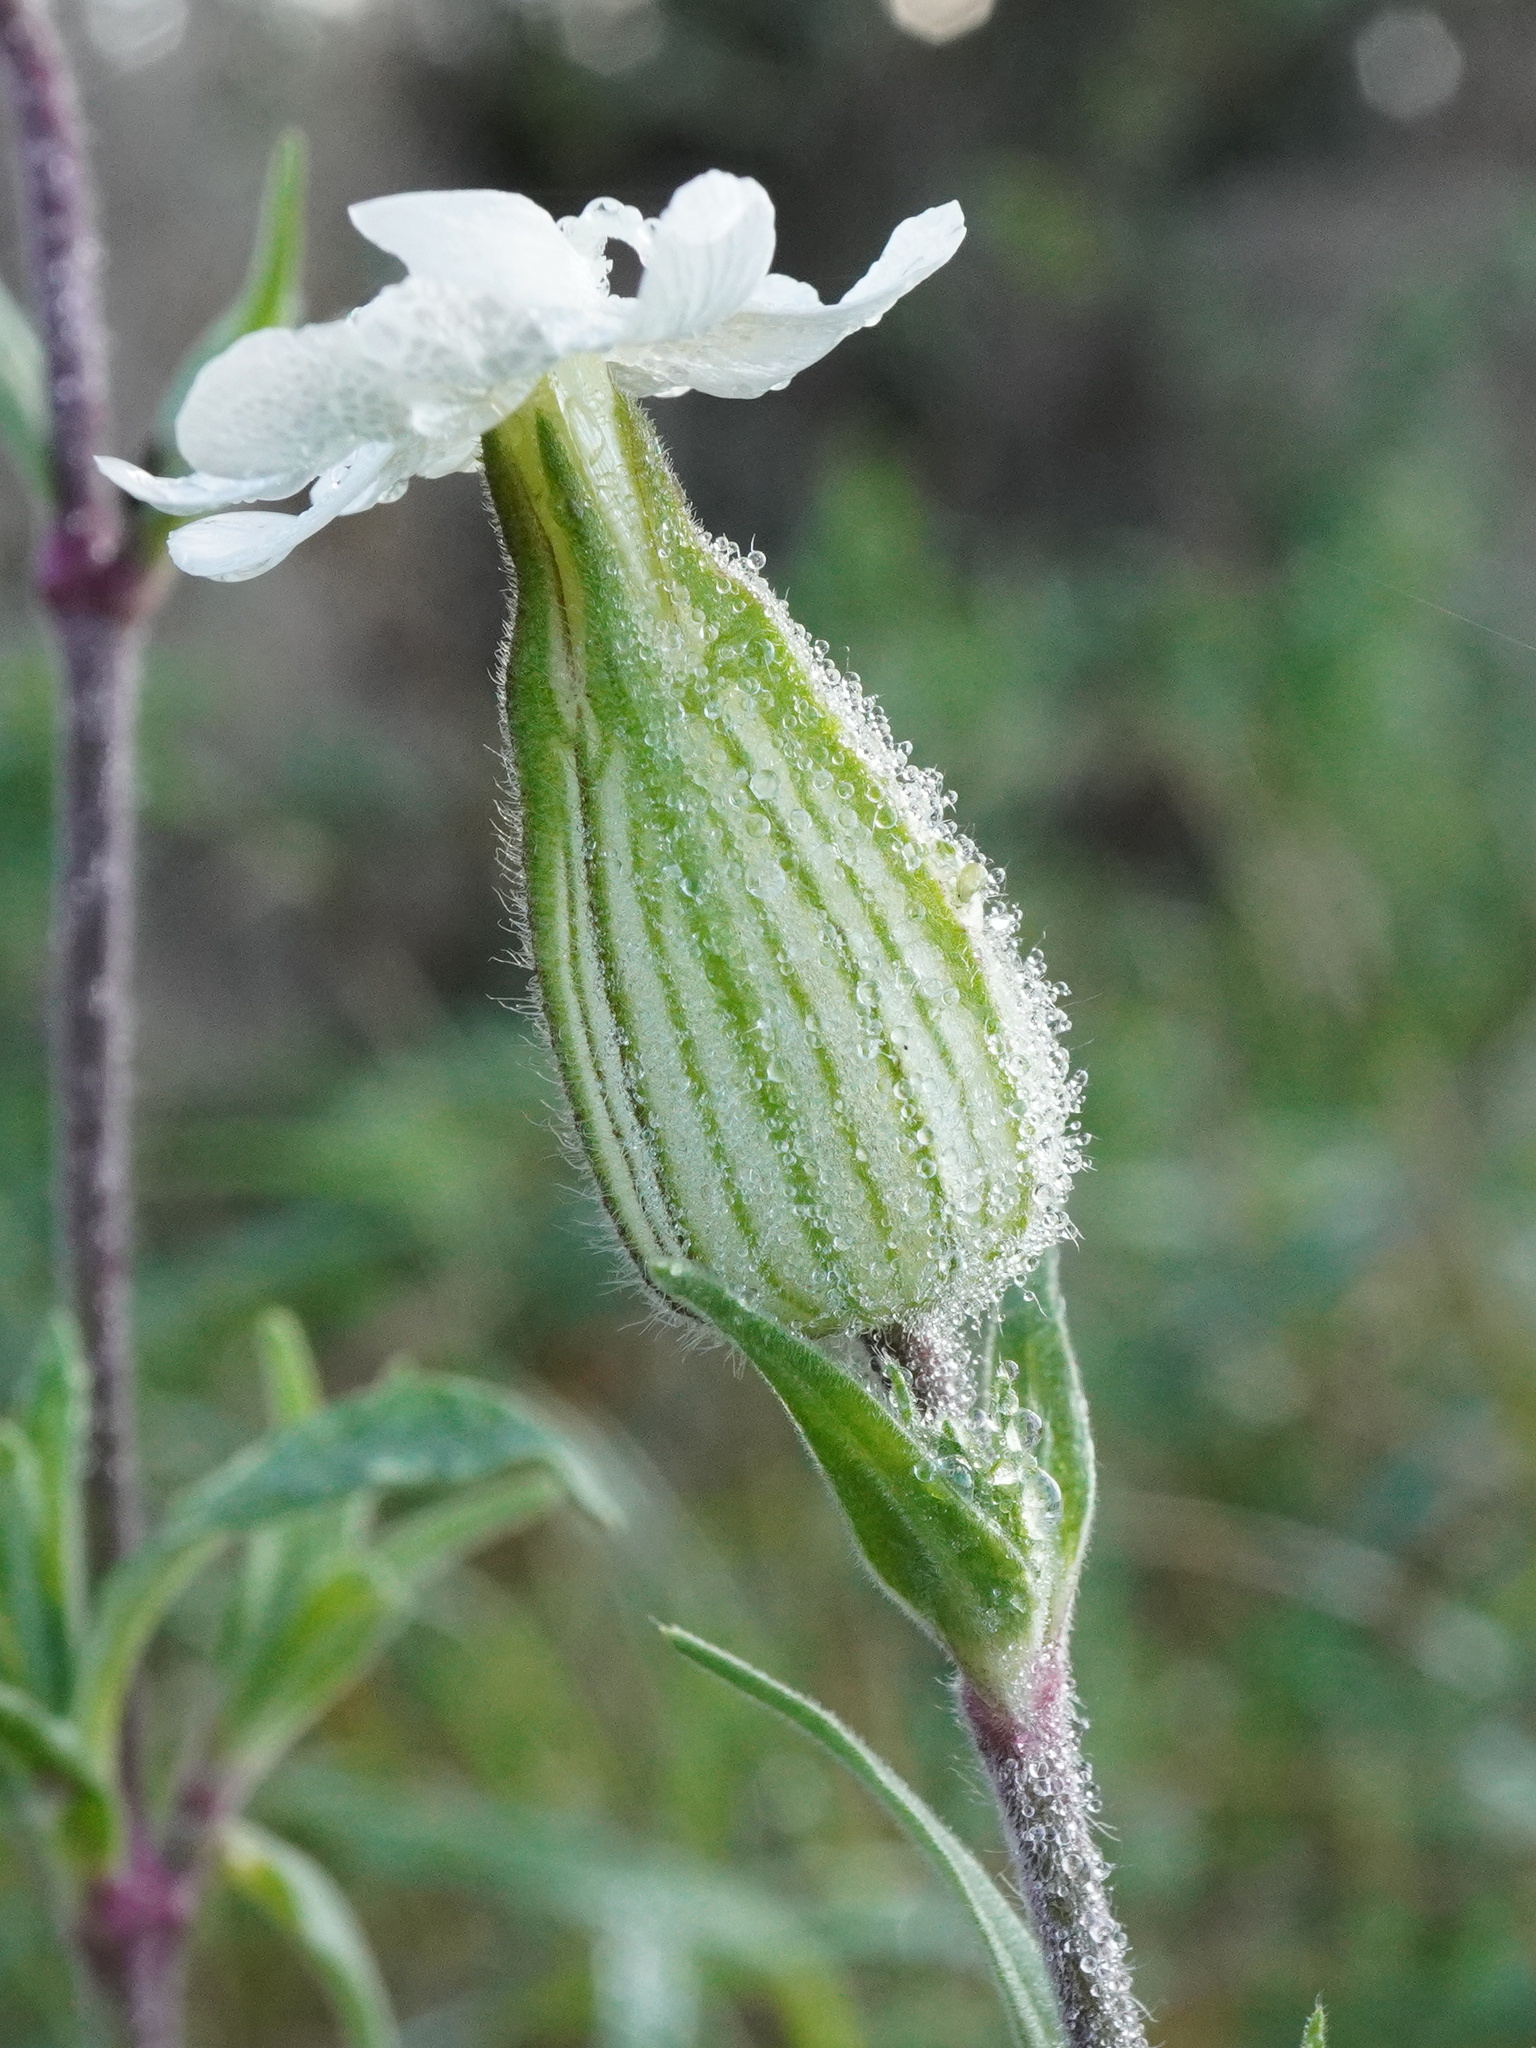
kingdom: Plantae
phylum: Tracheophyta
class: Magnoliopsida
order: Caryophyllales
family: Caryophyllaceae
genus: Silene
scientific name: Silene latifolia
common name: White campion
